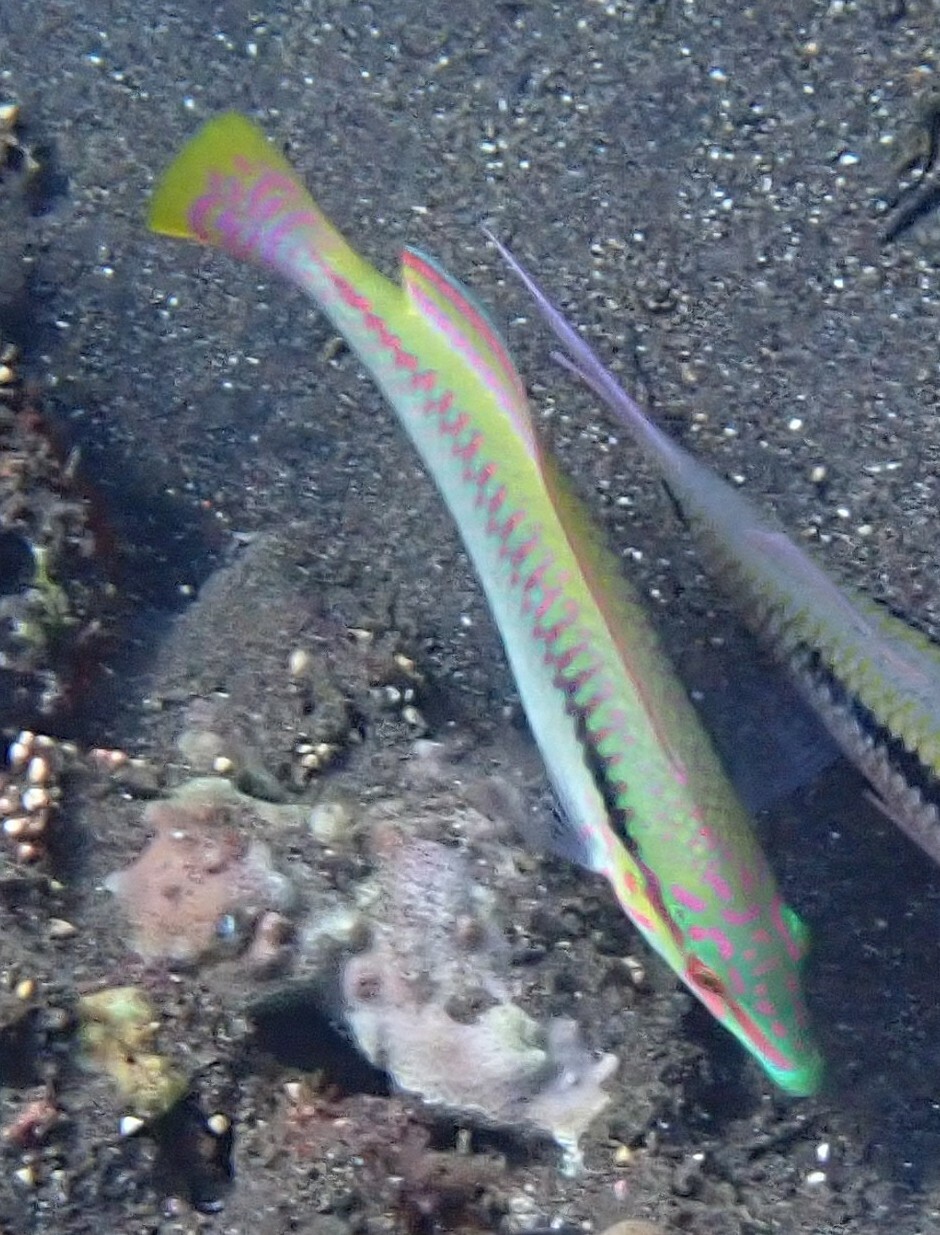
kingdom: Animalia
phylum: Chordata
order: Perciformes
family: Labridae
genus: Halichoeres
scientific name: Halichoeres scapularis
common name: Brownbanded wrasse
